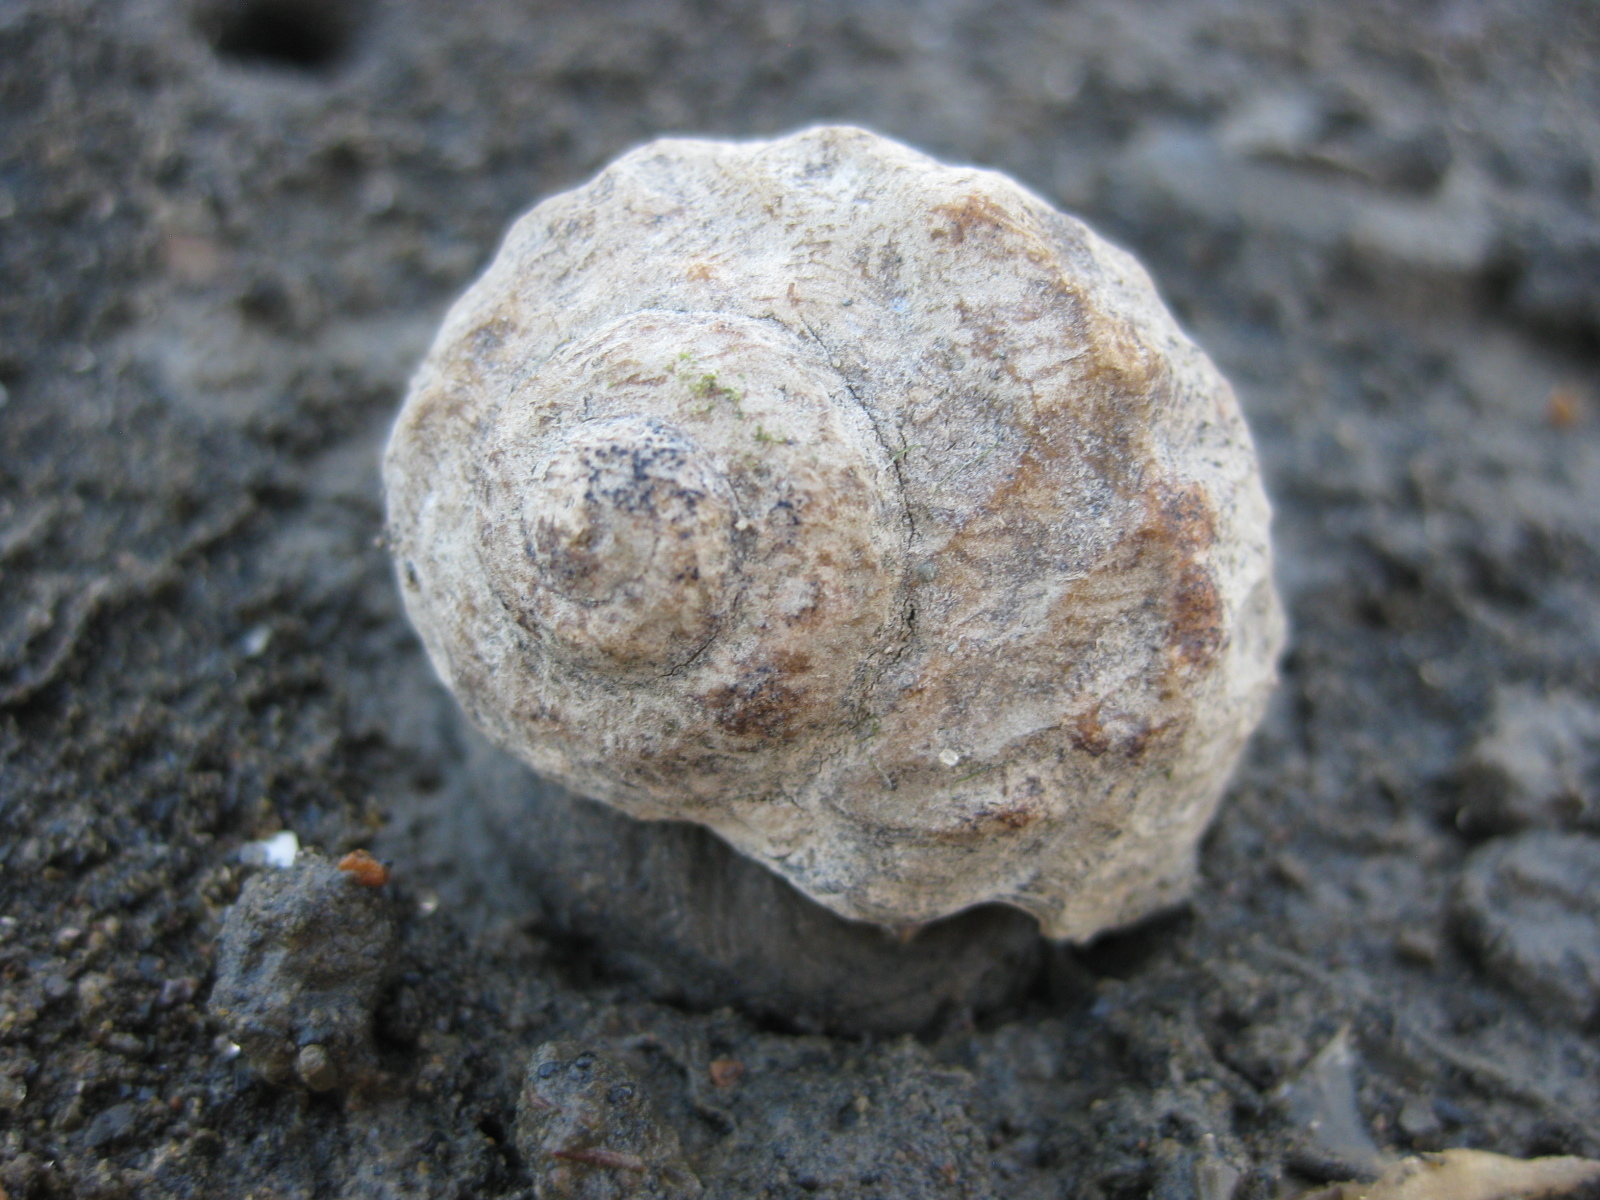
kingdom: Animalia
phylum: Mollusca
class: Gastropoda
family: Amphibolidae
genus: Amphibola
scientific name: Amphibola crenata
